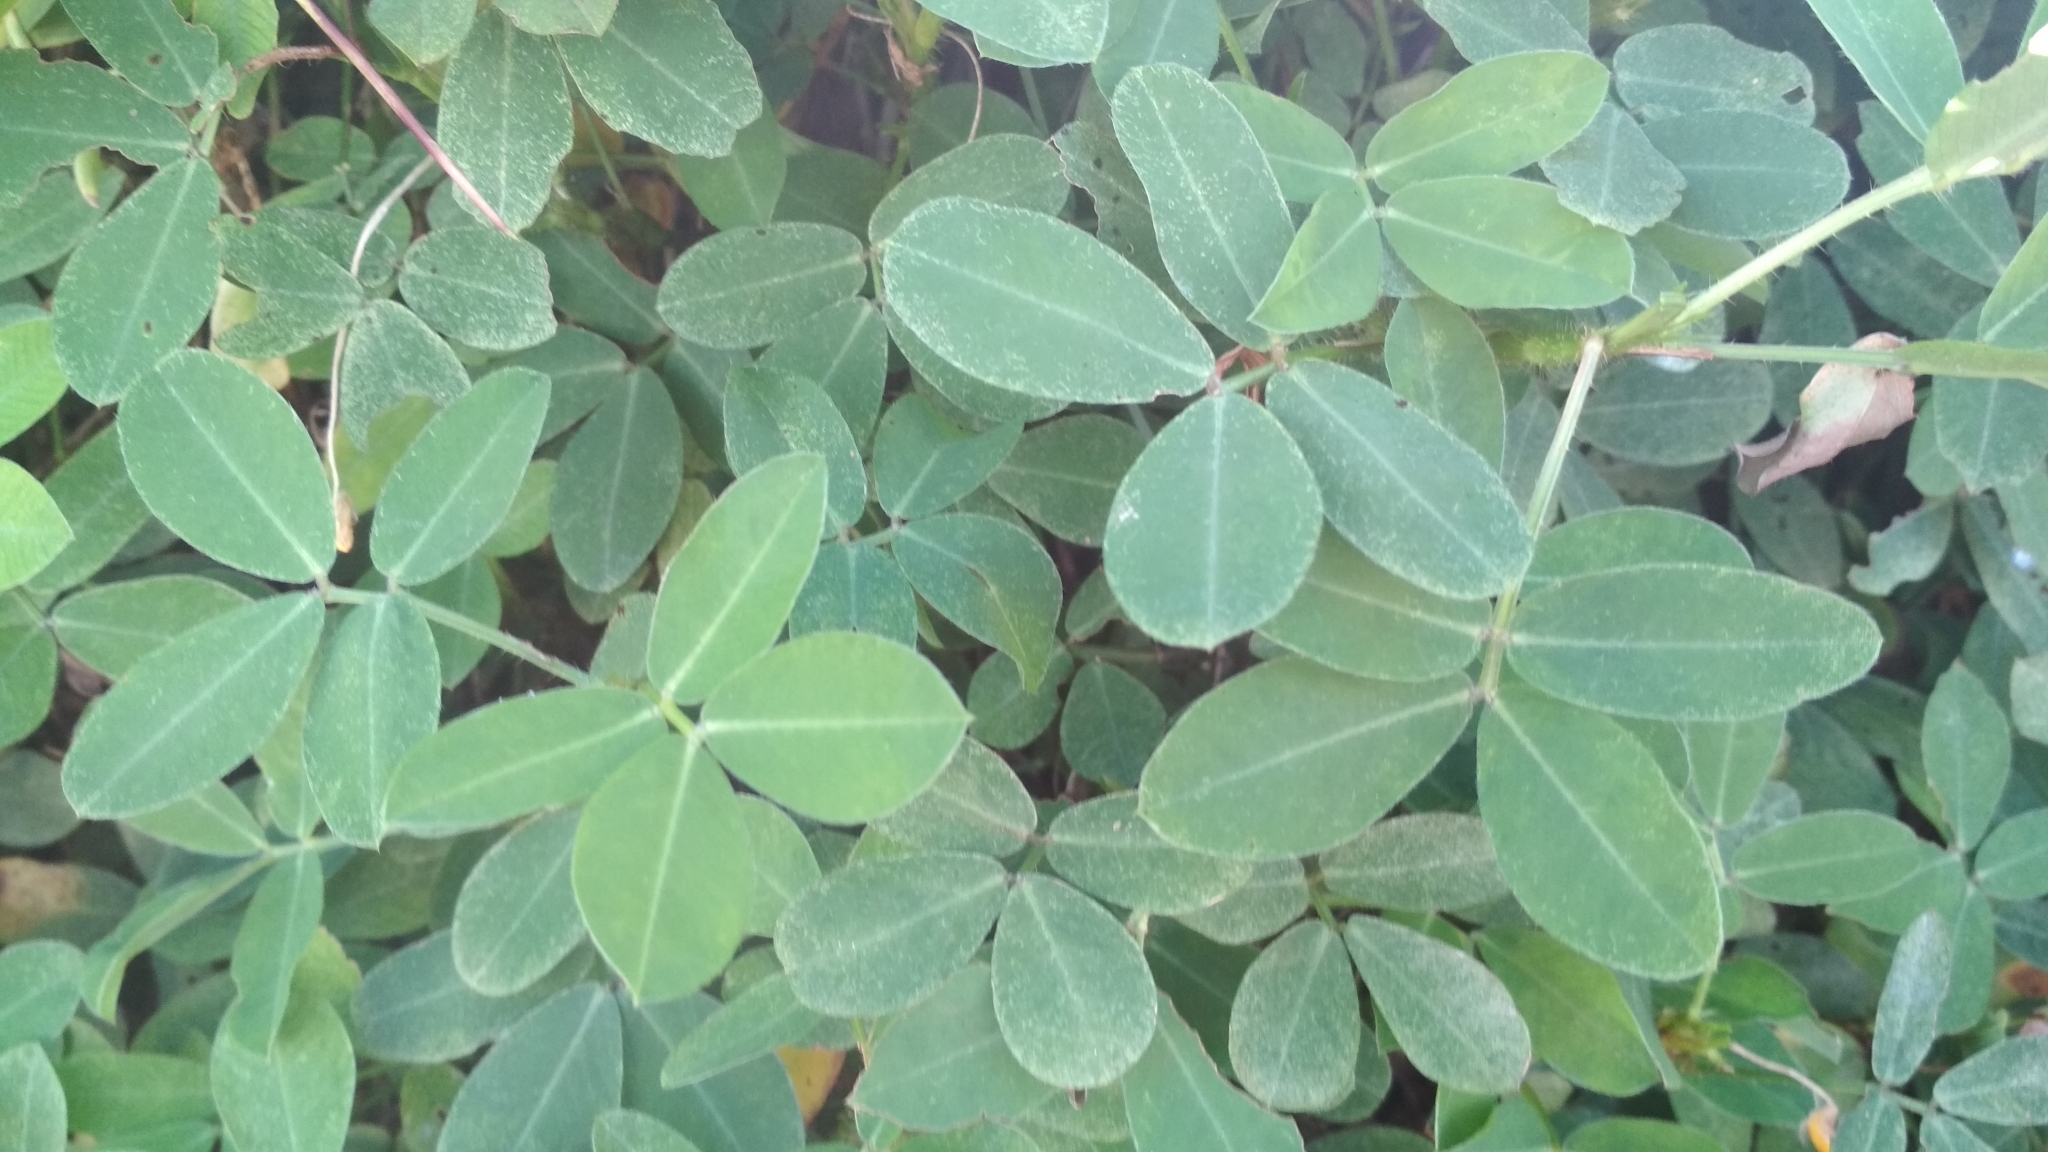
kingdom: Plantae
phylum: Tracheophyta
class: Magnoliopsida
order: Fabales
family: Fabaceae
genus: Arachis
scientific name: Arachis pintoi
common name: Pinto peanut
